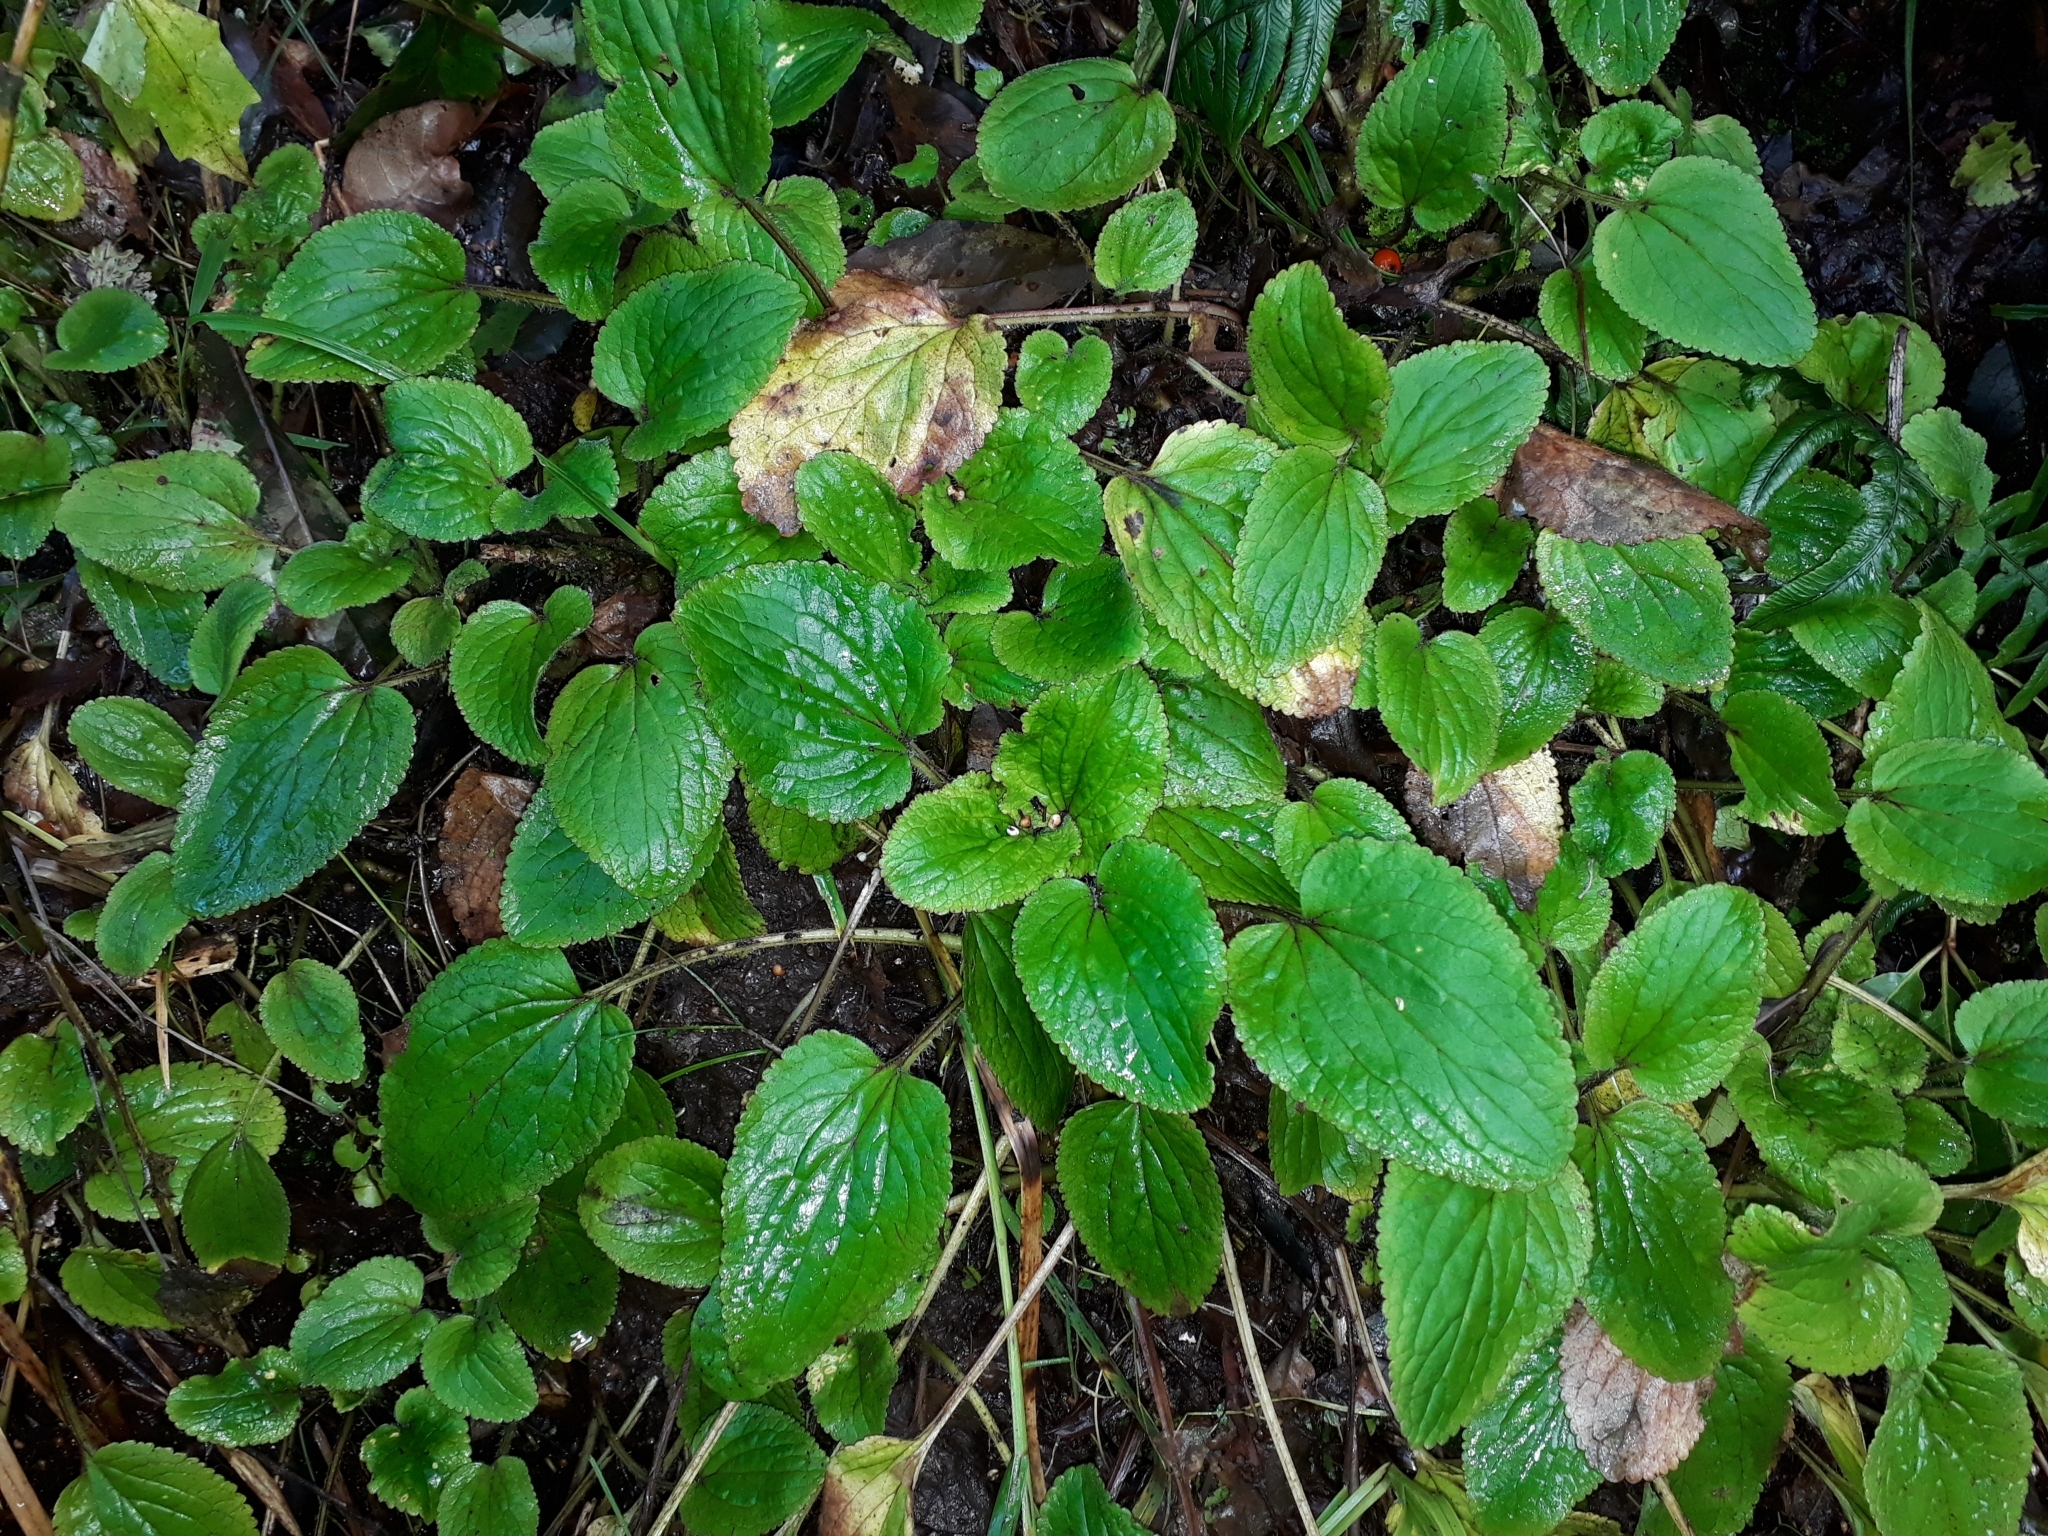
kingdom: Plantae
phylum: Tracheophyta
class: Magnoliopsida
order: Lamiales
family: Plantaginaceae
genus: Ourisia
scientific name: Ourisia macrophylla
